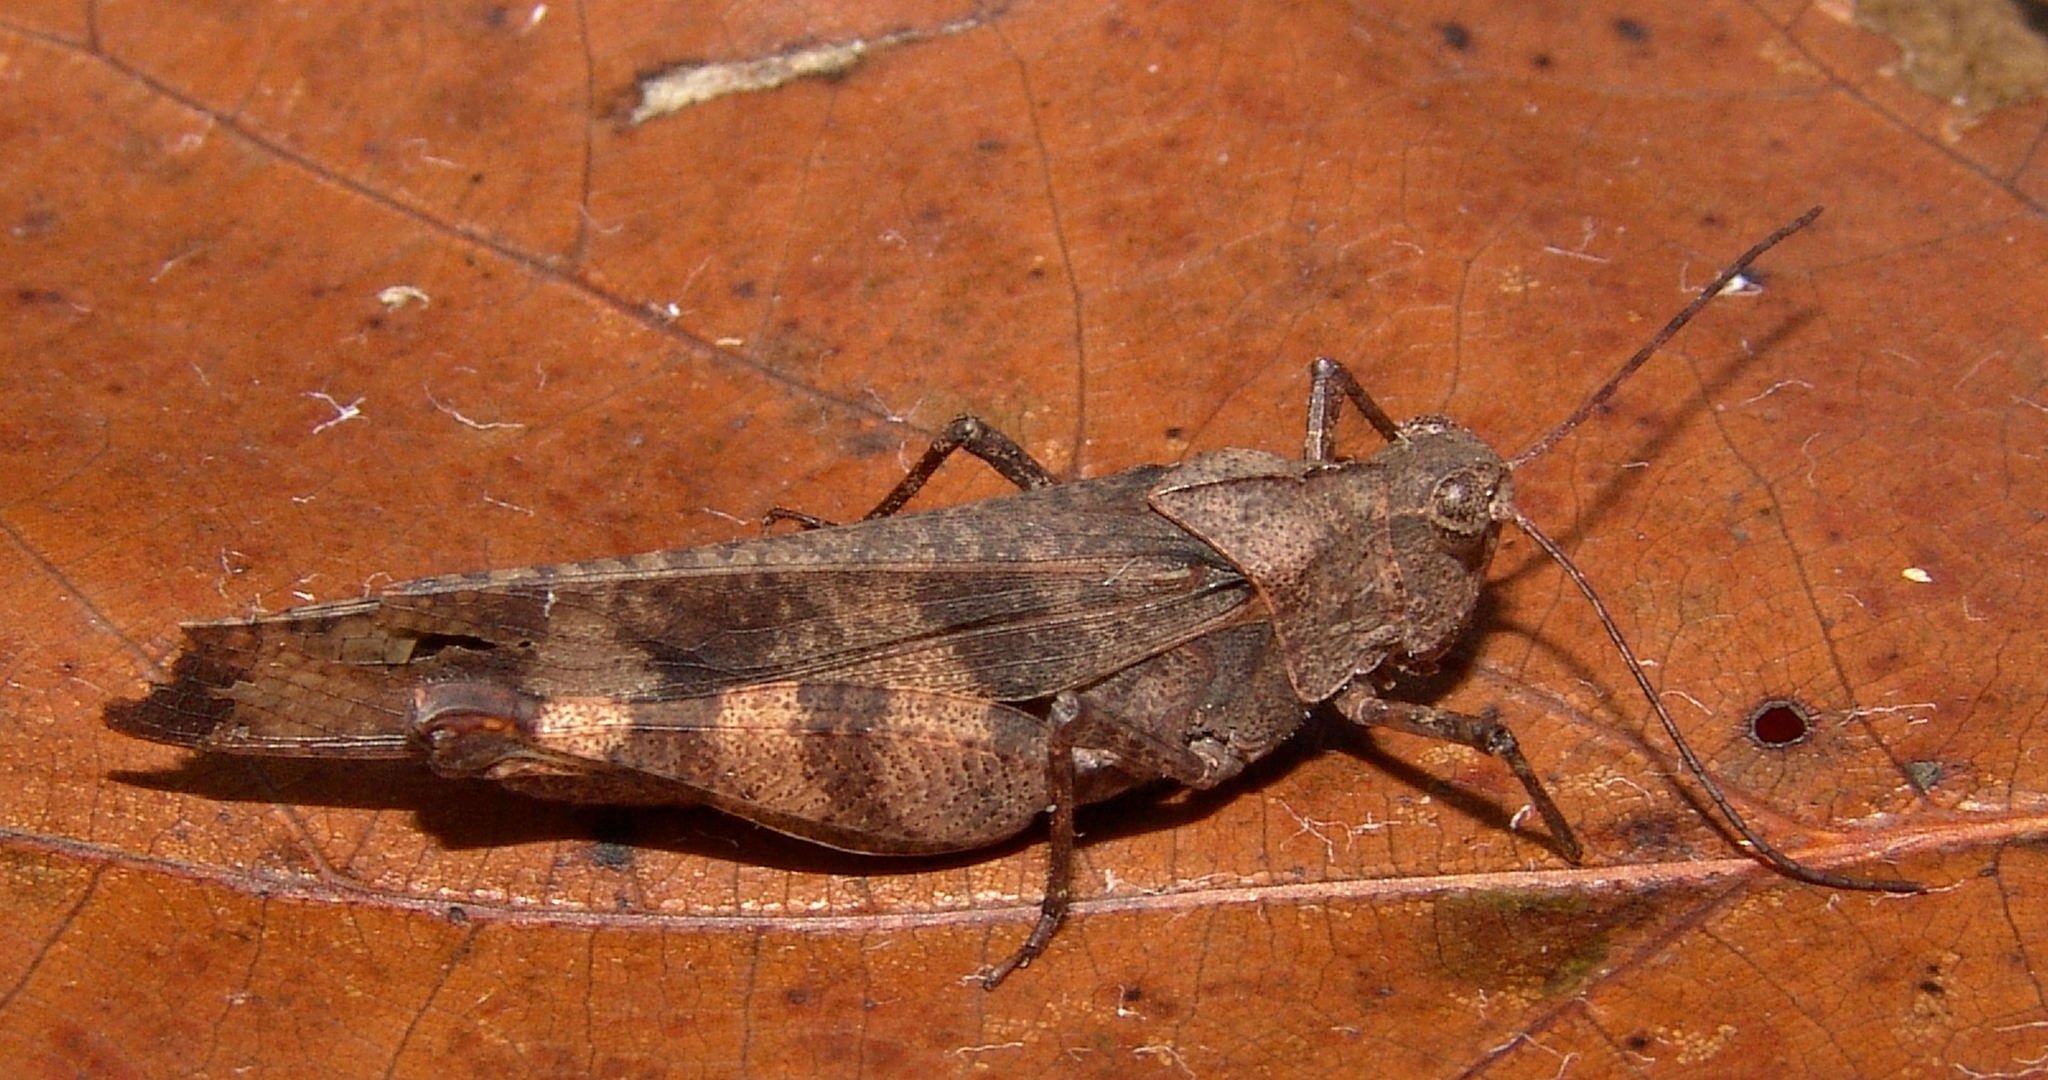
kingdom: Animalia
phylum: Arthropoda
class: Insecta
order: Orthoptera
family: Acrididae
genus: Spharagemon
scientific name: Spharagemon bolli
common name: Boll's grasshopper
